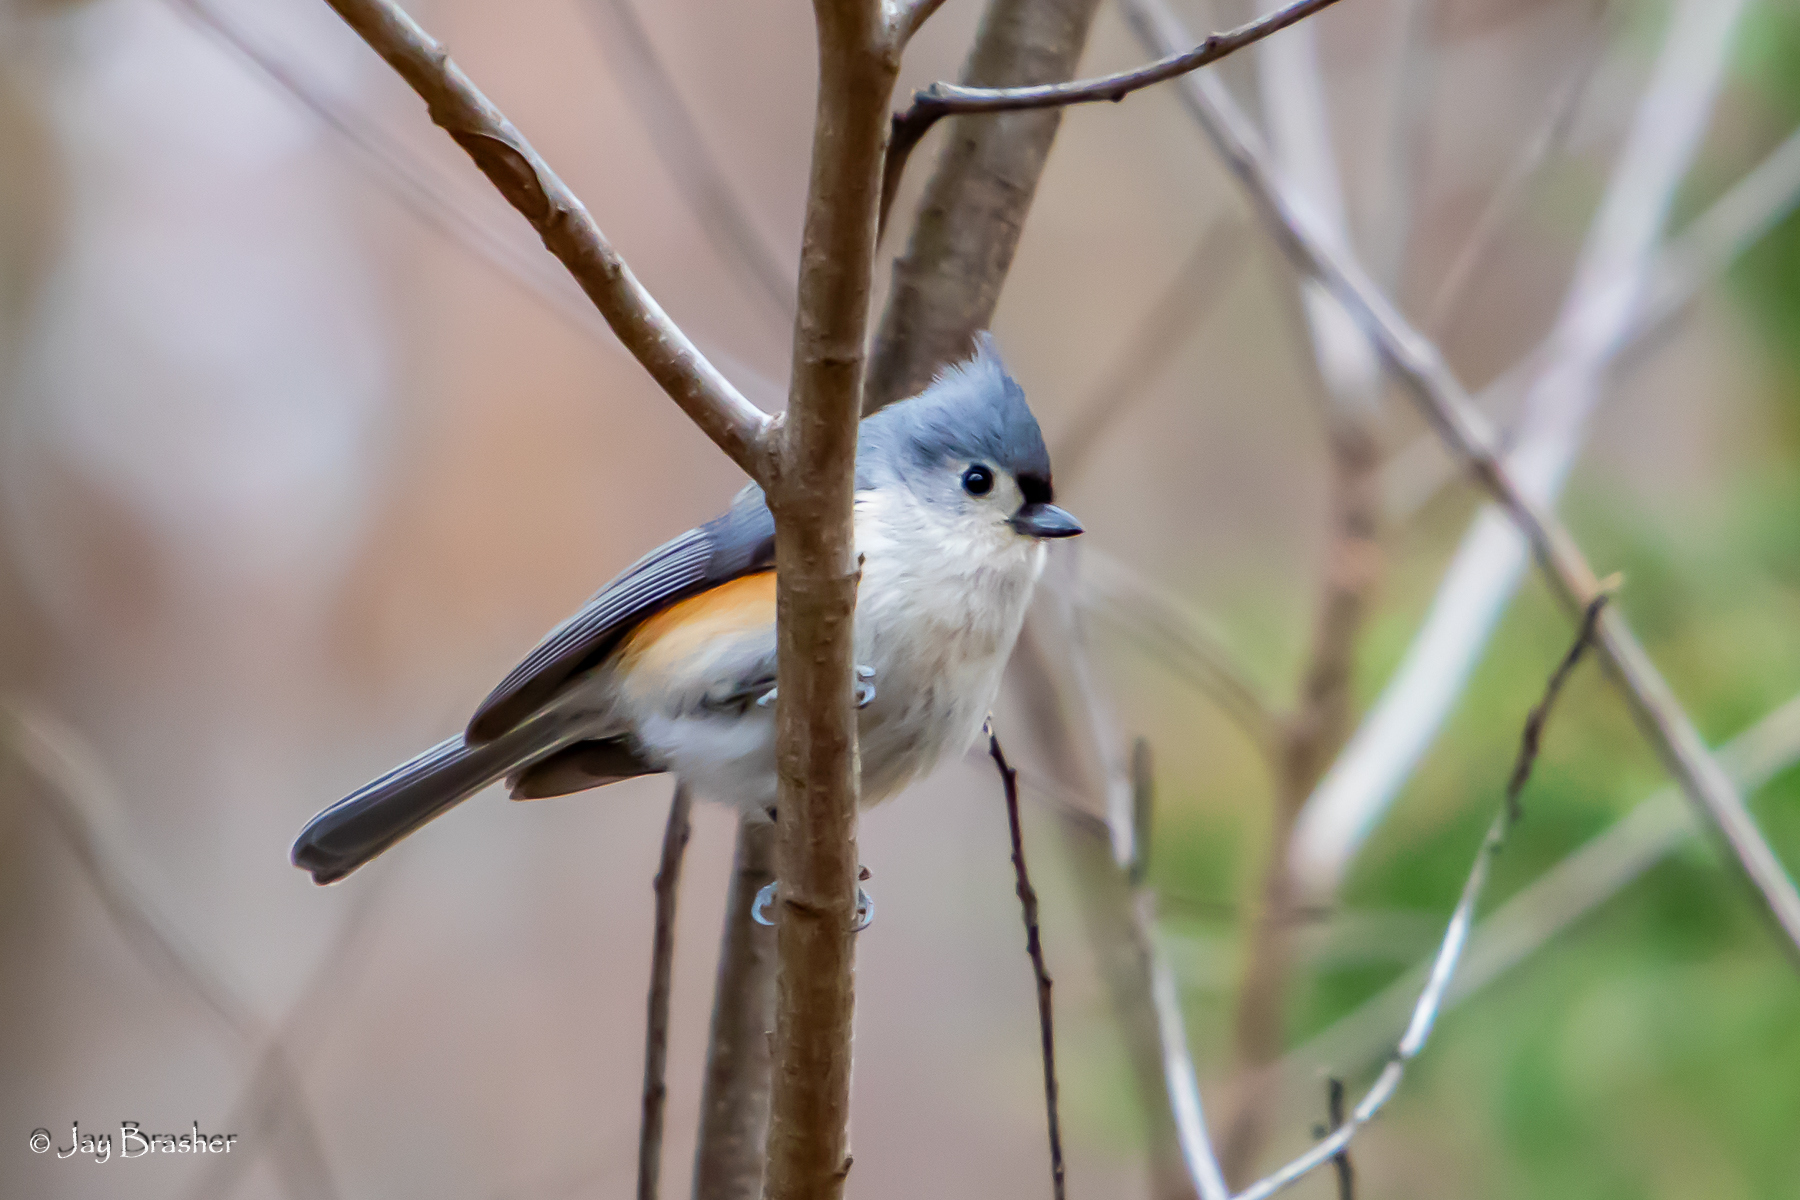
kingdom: Animalia
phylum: Chordata
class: Aves
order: Passeriformes
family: Paridae
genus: Baeolophus
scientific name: Baeolophus bicolor
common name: Tufted titmouse
